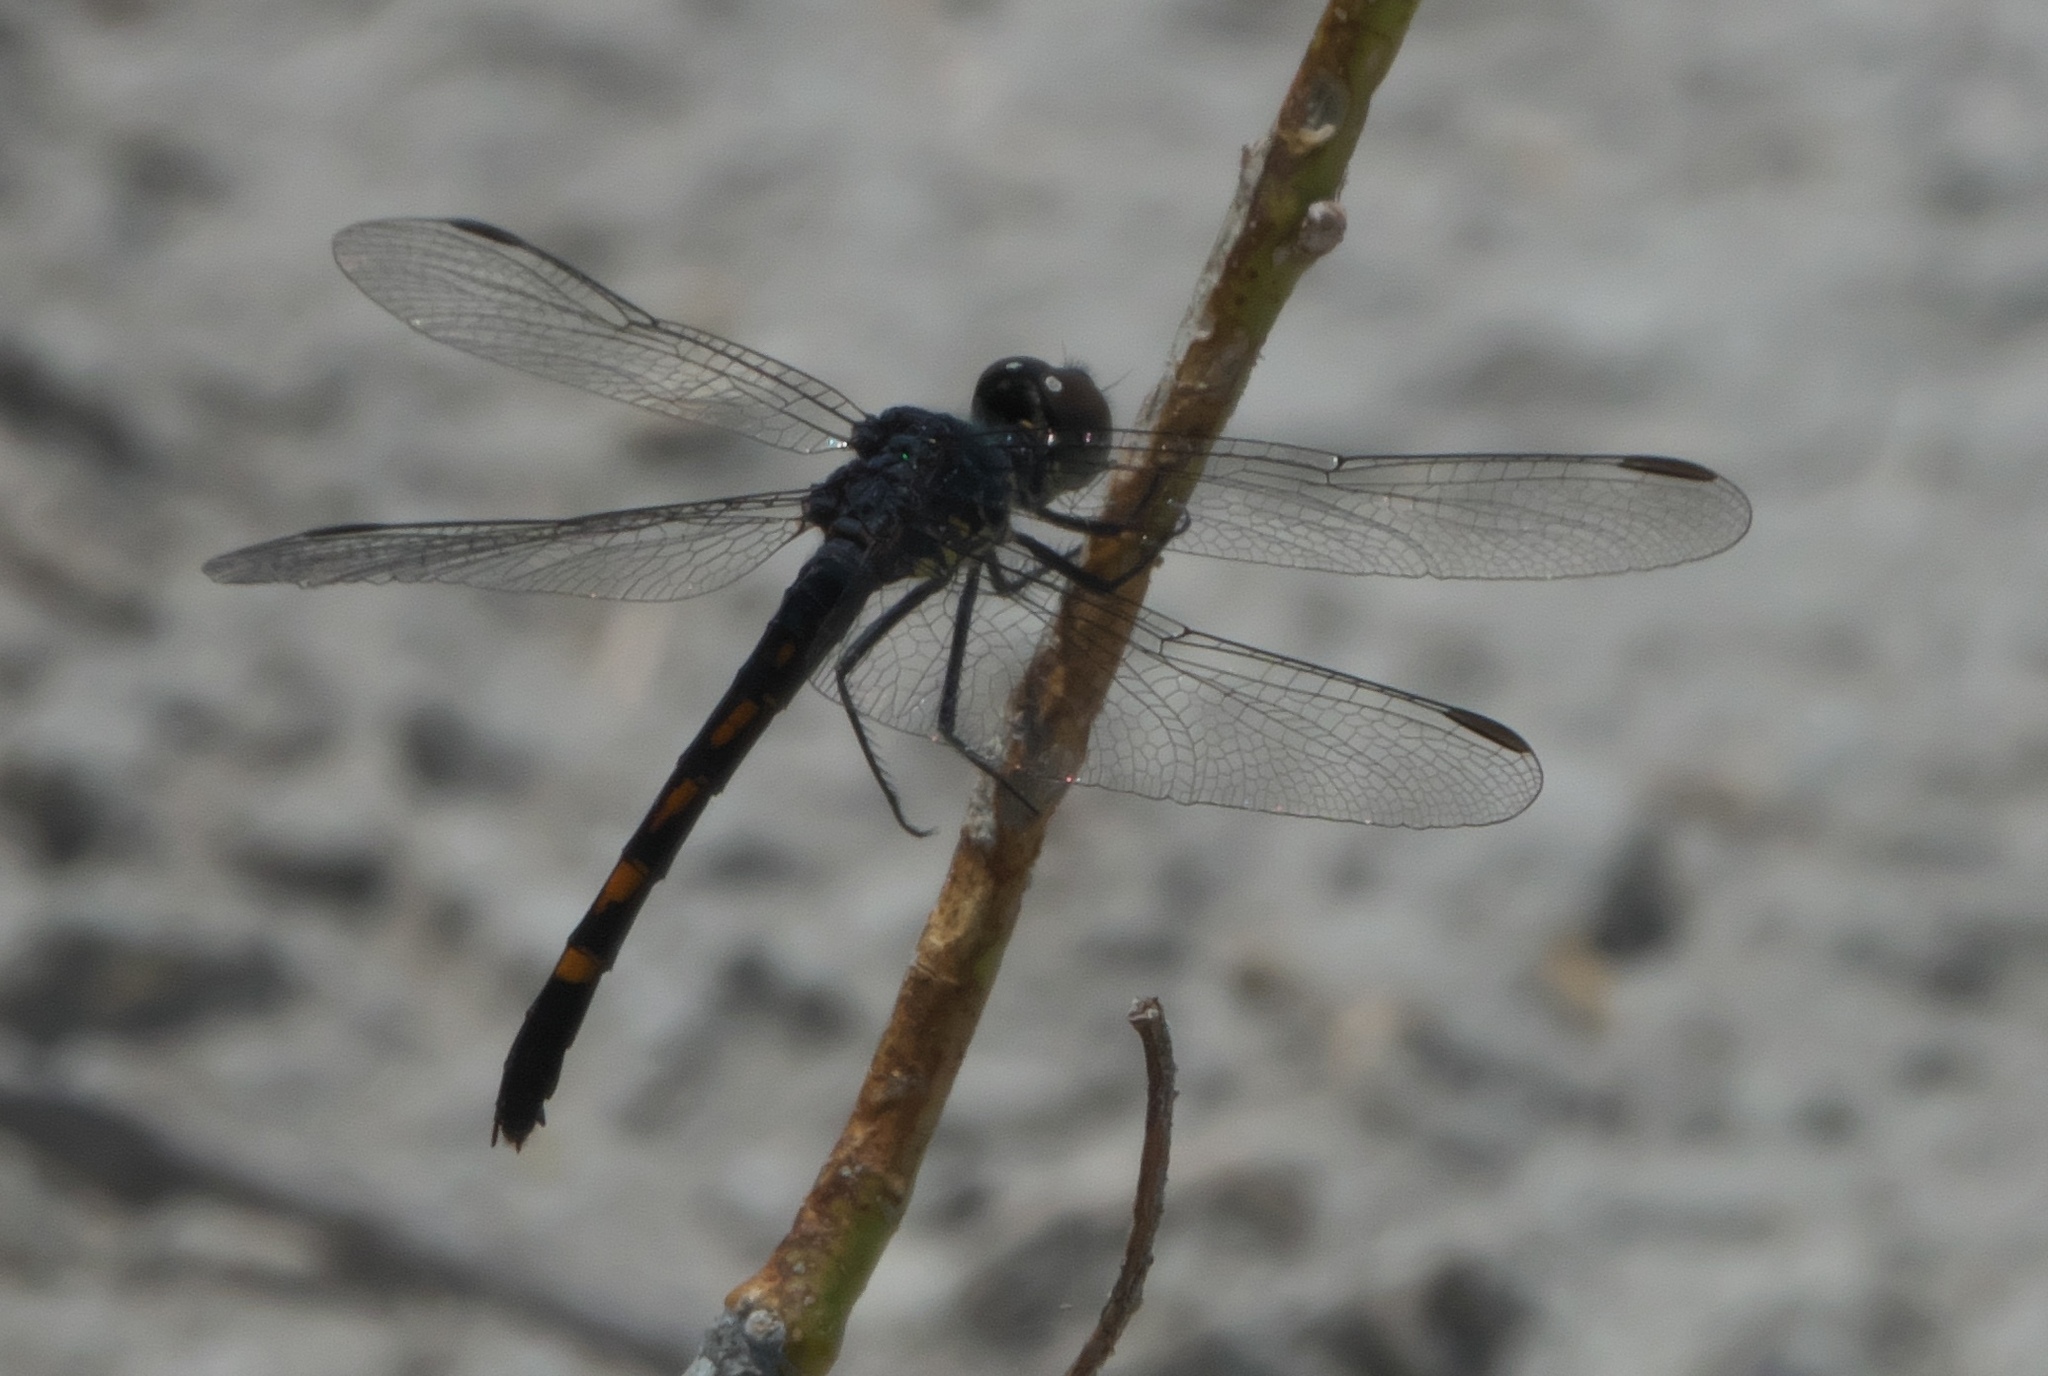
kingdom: Animalia
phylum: Arthropoda
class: Insecta
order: Odonata
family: Libellulidae
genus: Erythrodiplax
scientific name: Erythrodiplax berenice
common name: Seaside dragonlet
